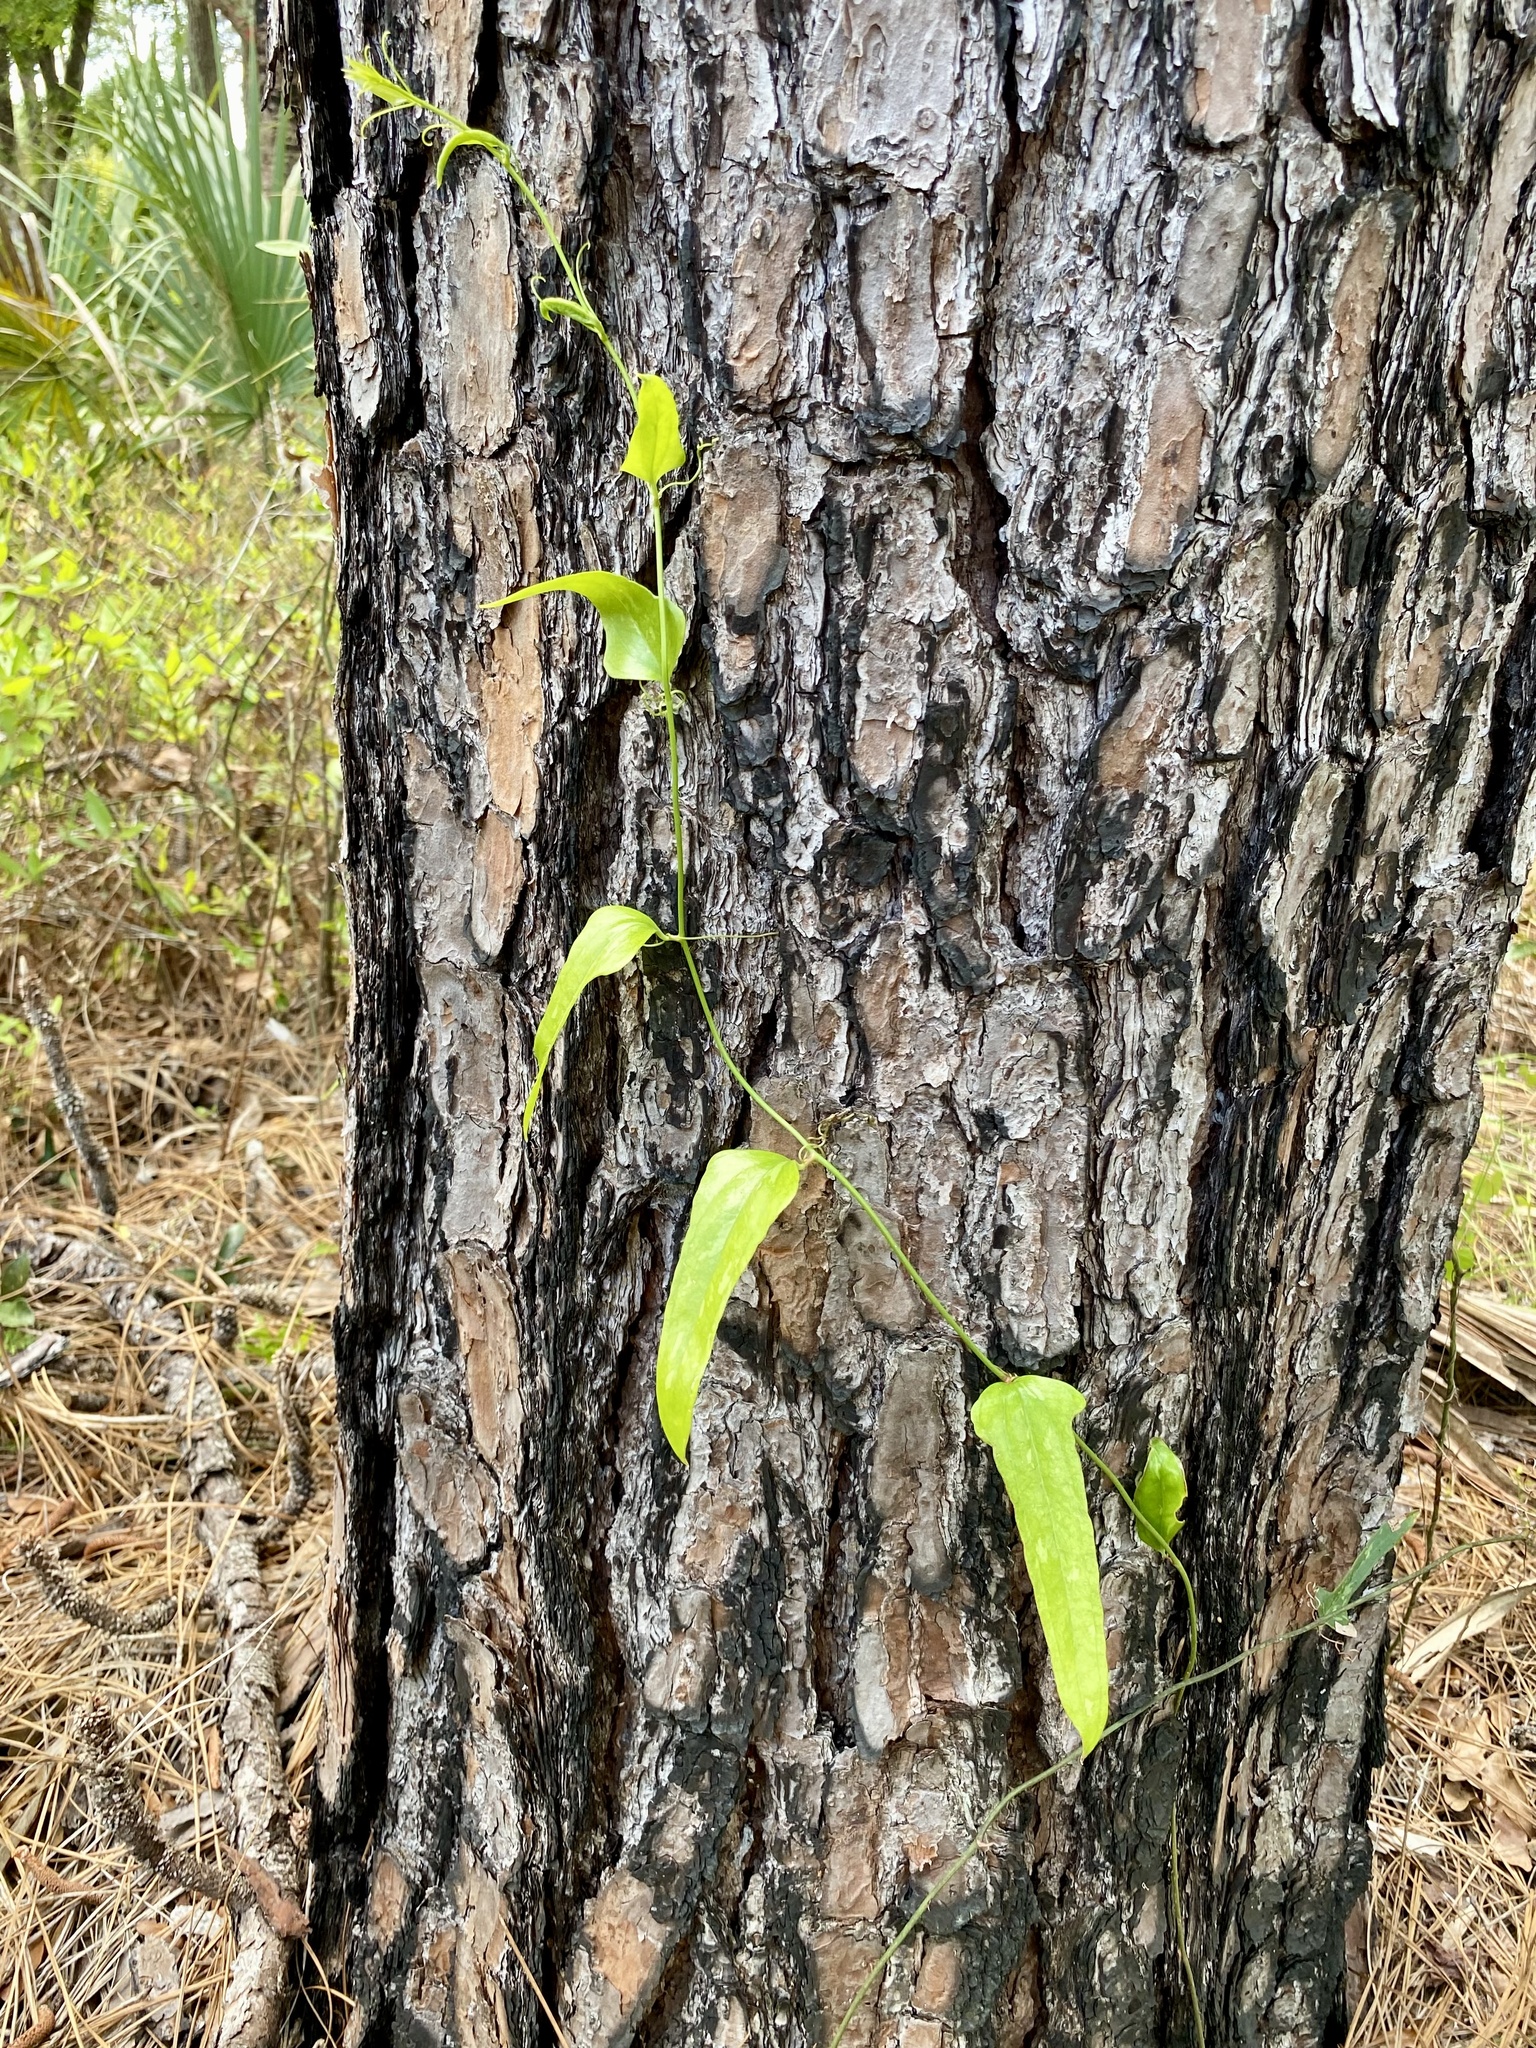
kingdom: Plantae
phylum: Tracheophyta
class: Liliopsida
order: Liliales
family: Smilacaceae
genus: Smilax
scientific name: Smilax auriculata
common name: Wild bamboo
